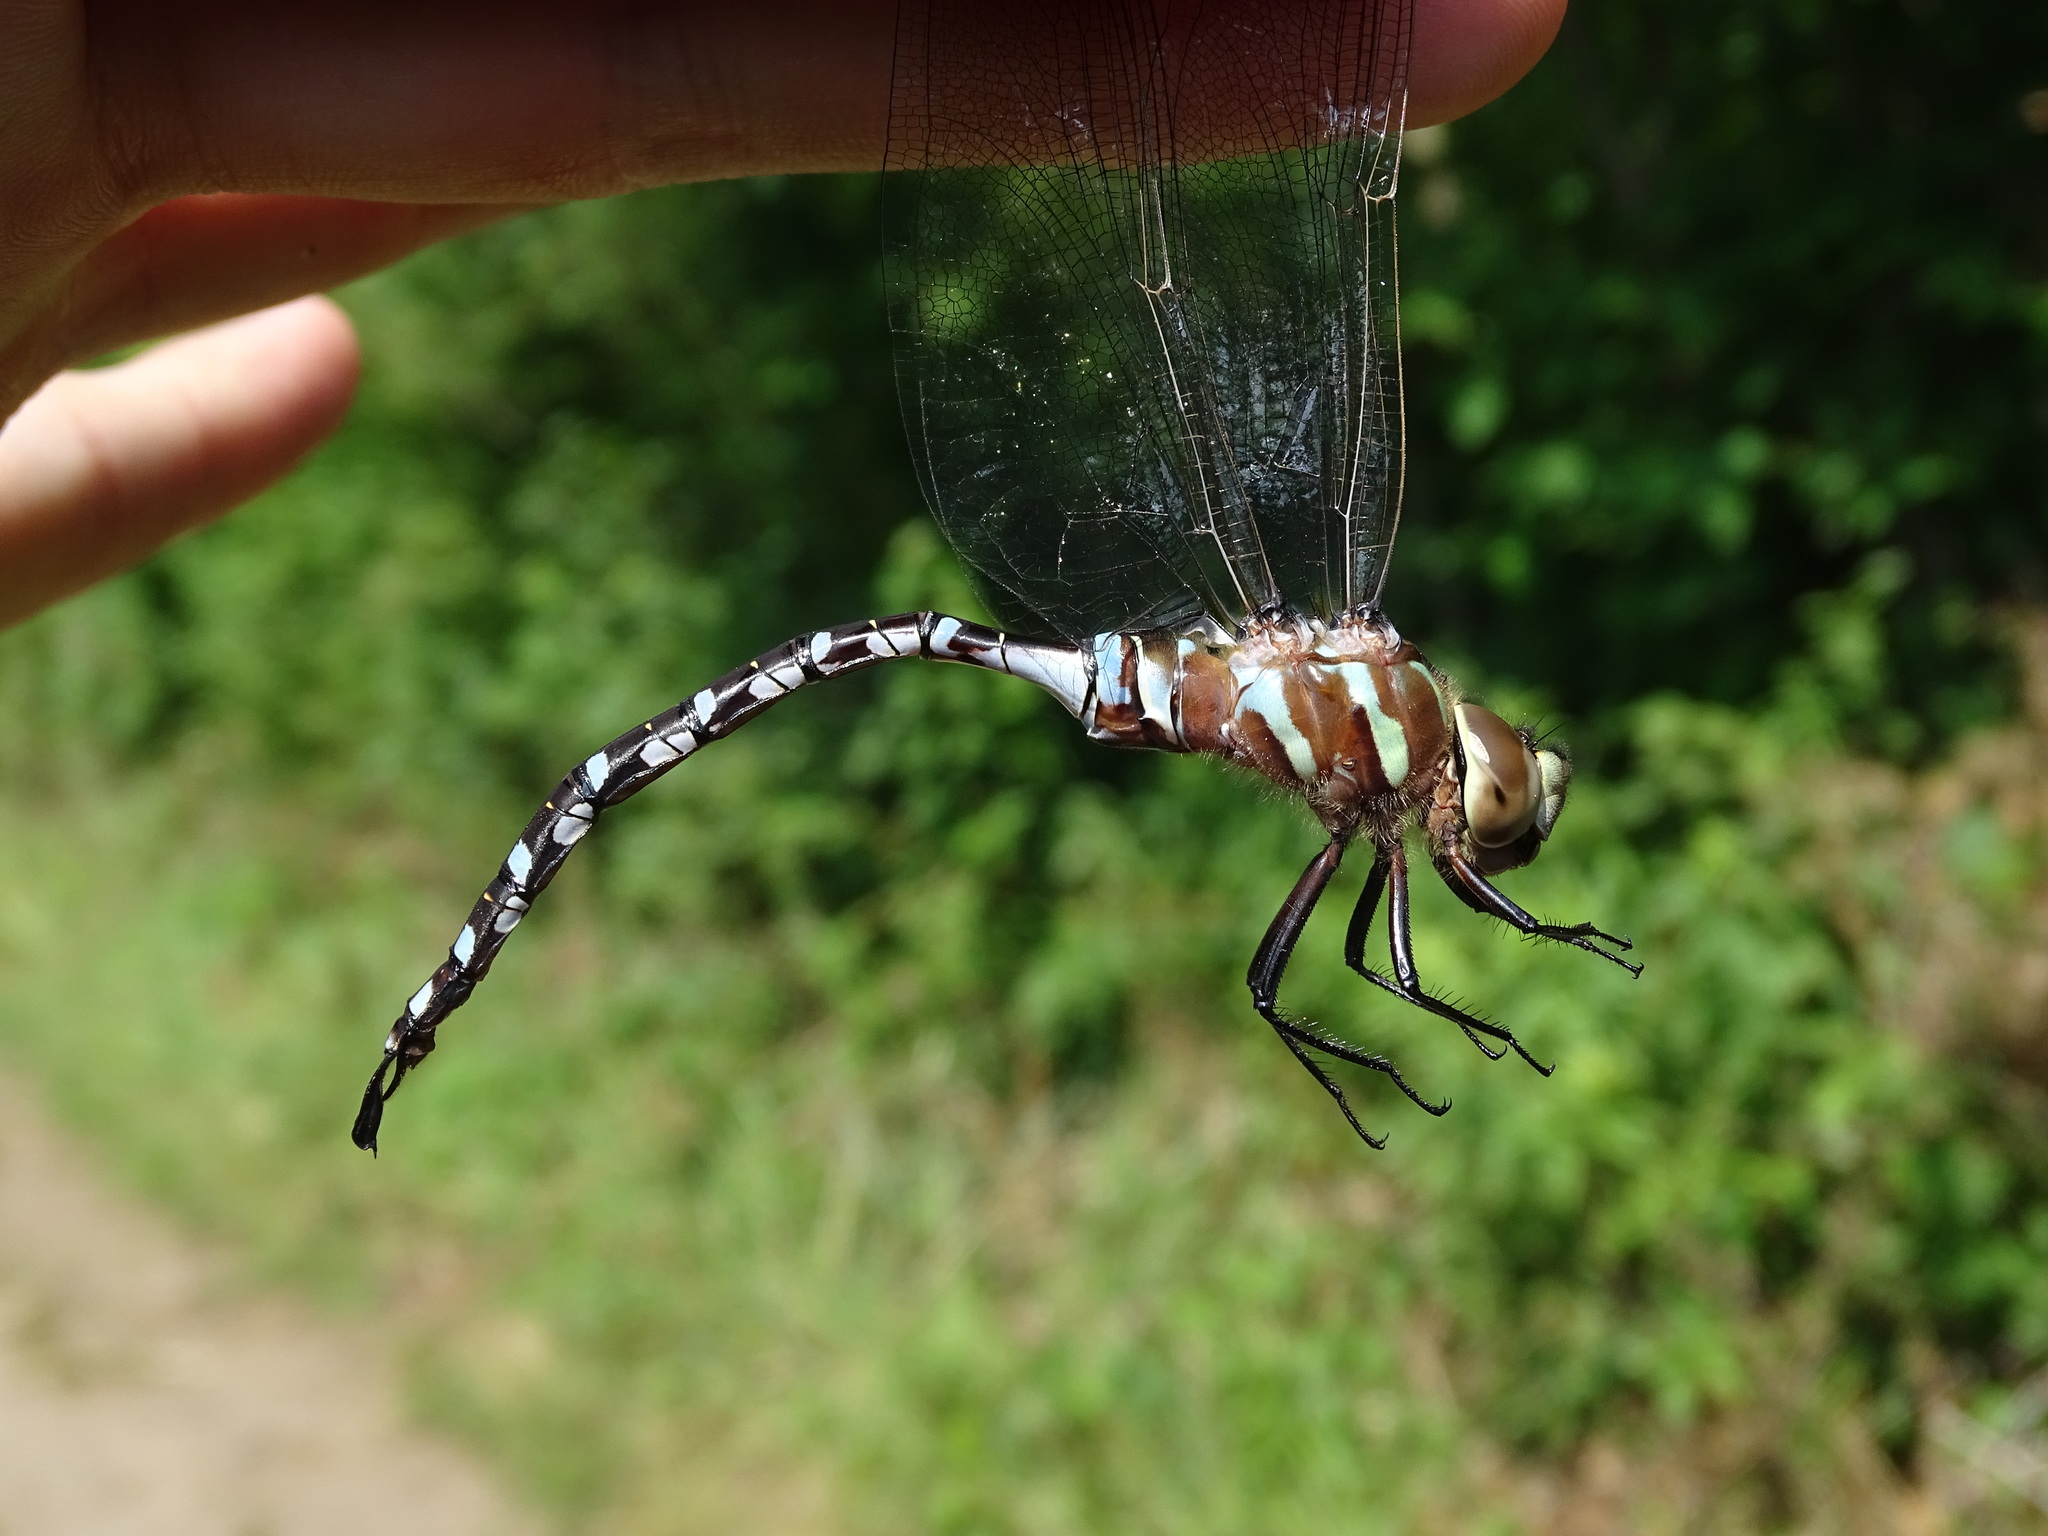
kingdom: Animalia
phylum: Arthropoda
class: Insecta
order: Odonata
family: Aeshnidae
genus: Aeshna
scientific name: Aeshna constricta
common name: Lance-tipped darner
